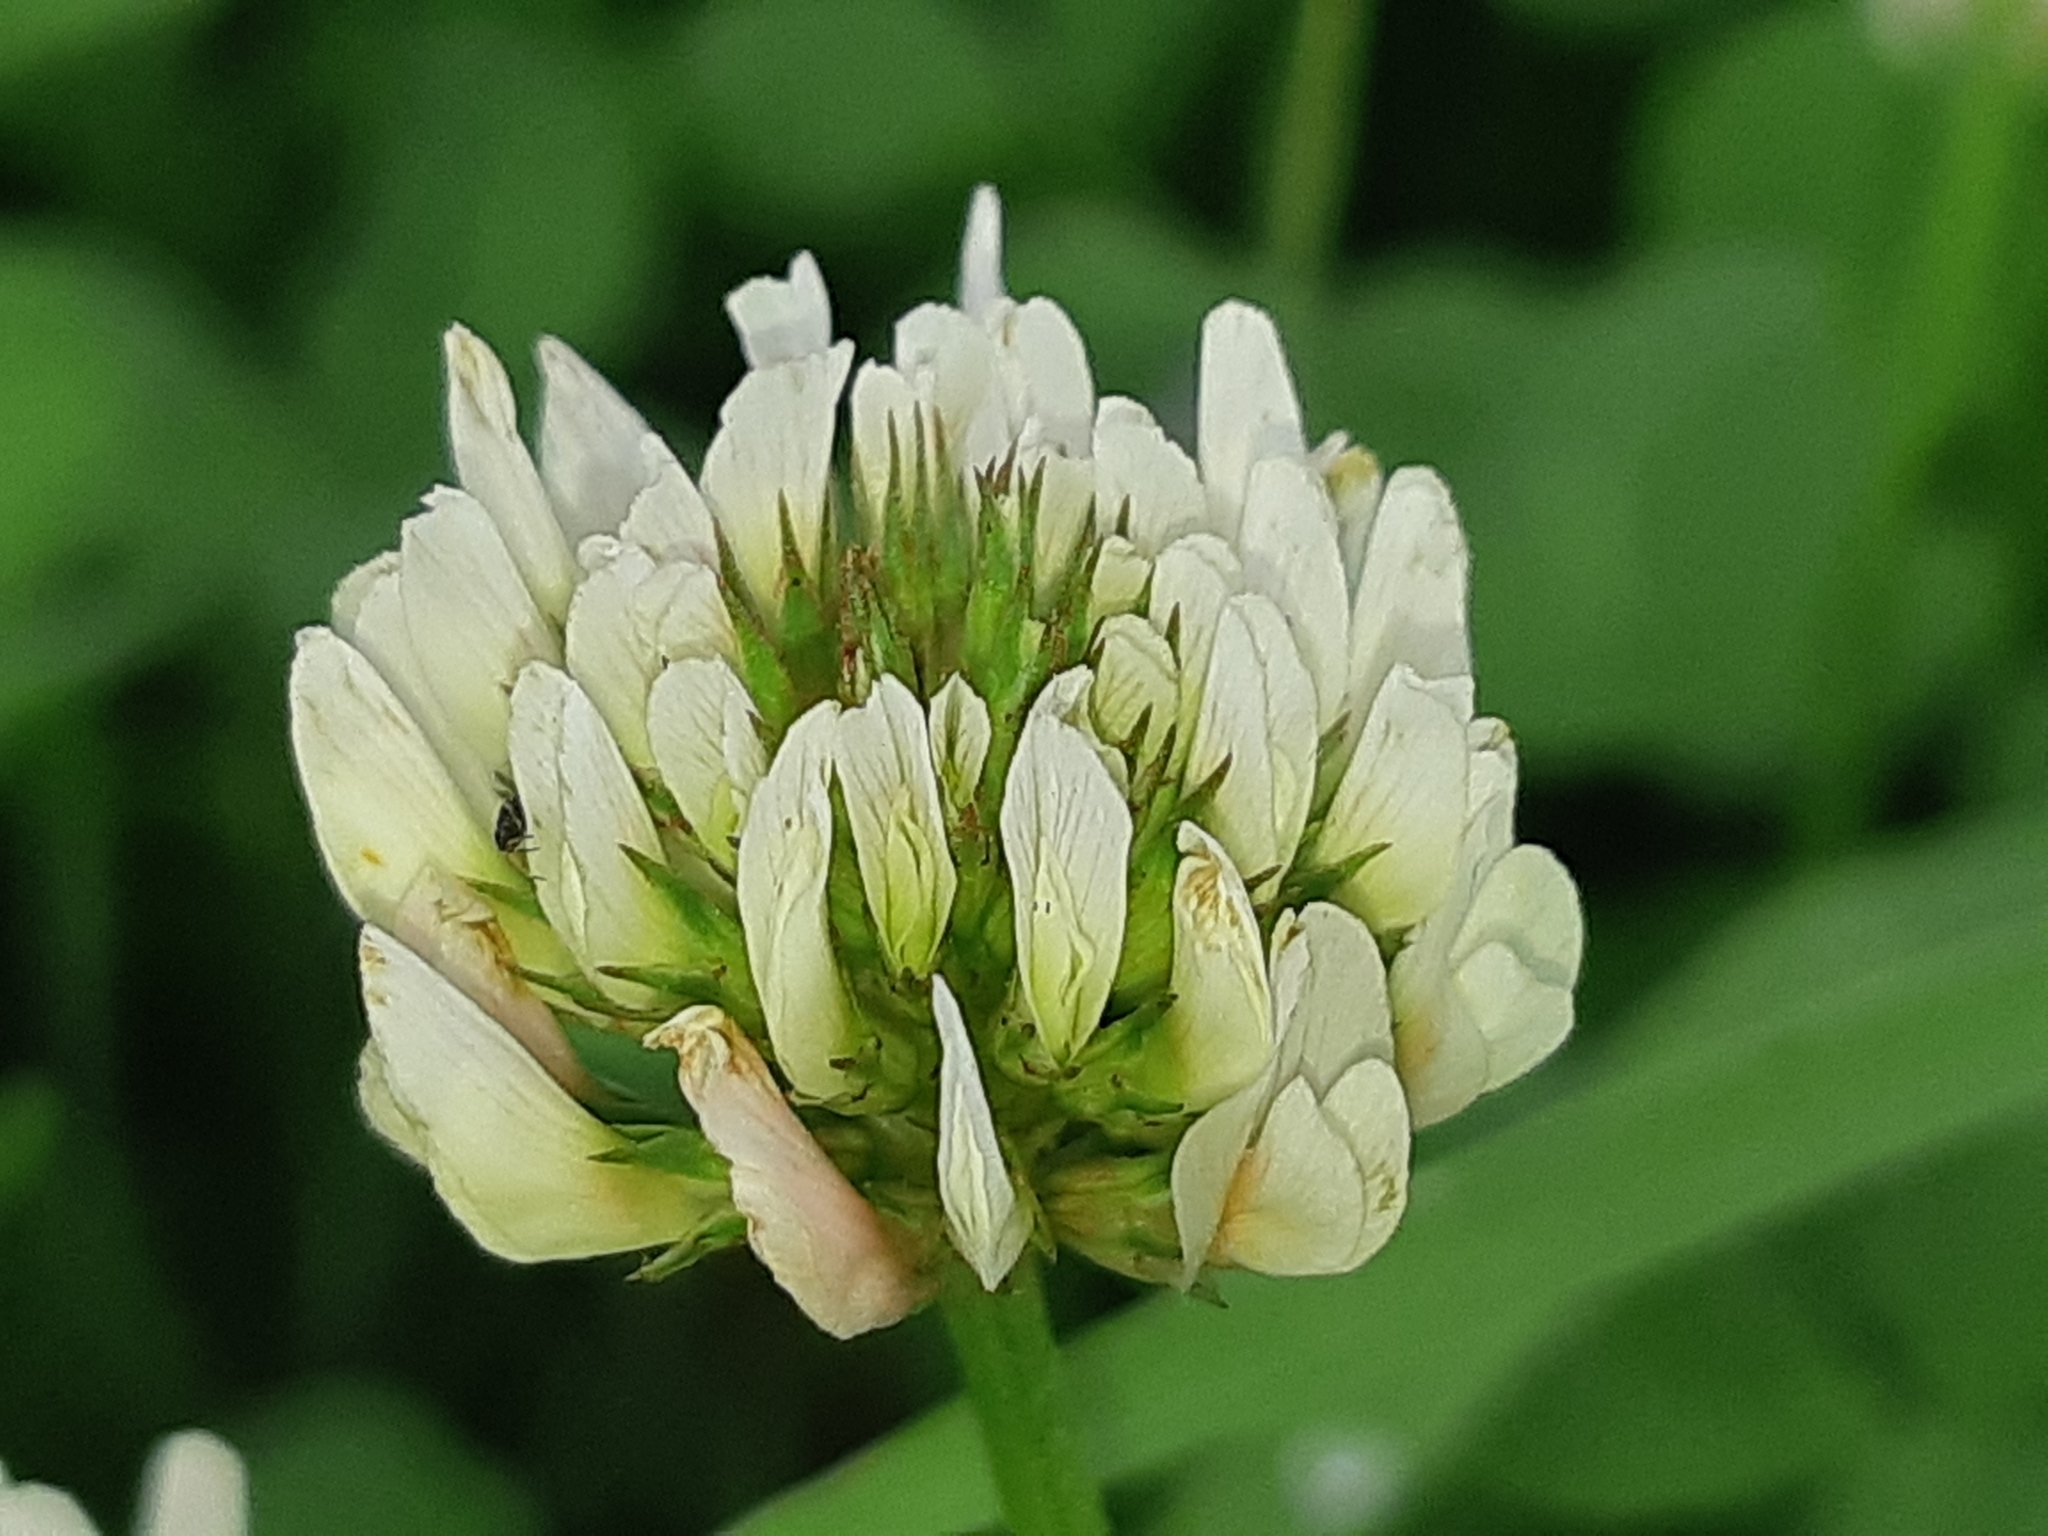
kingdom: Plantae
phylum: Tracheophyta
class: Magnoliopsida
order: Fabales
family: Fabaceae
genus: Trifolium
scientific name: Trifolium repens
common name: White clover
